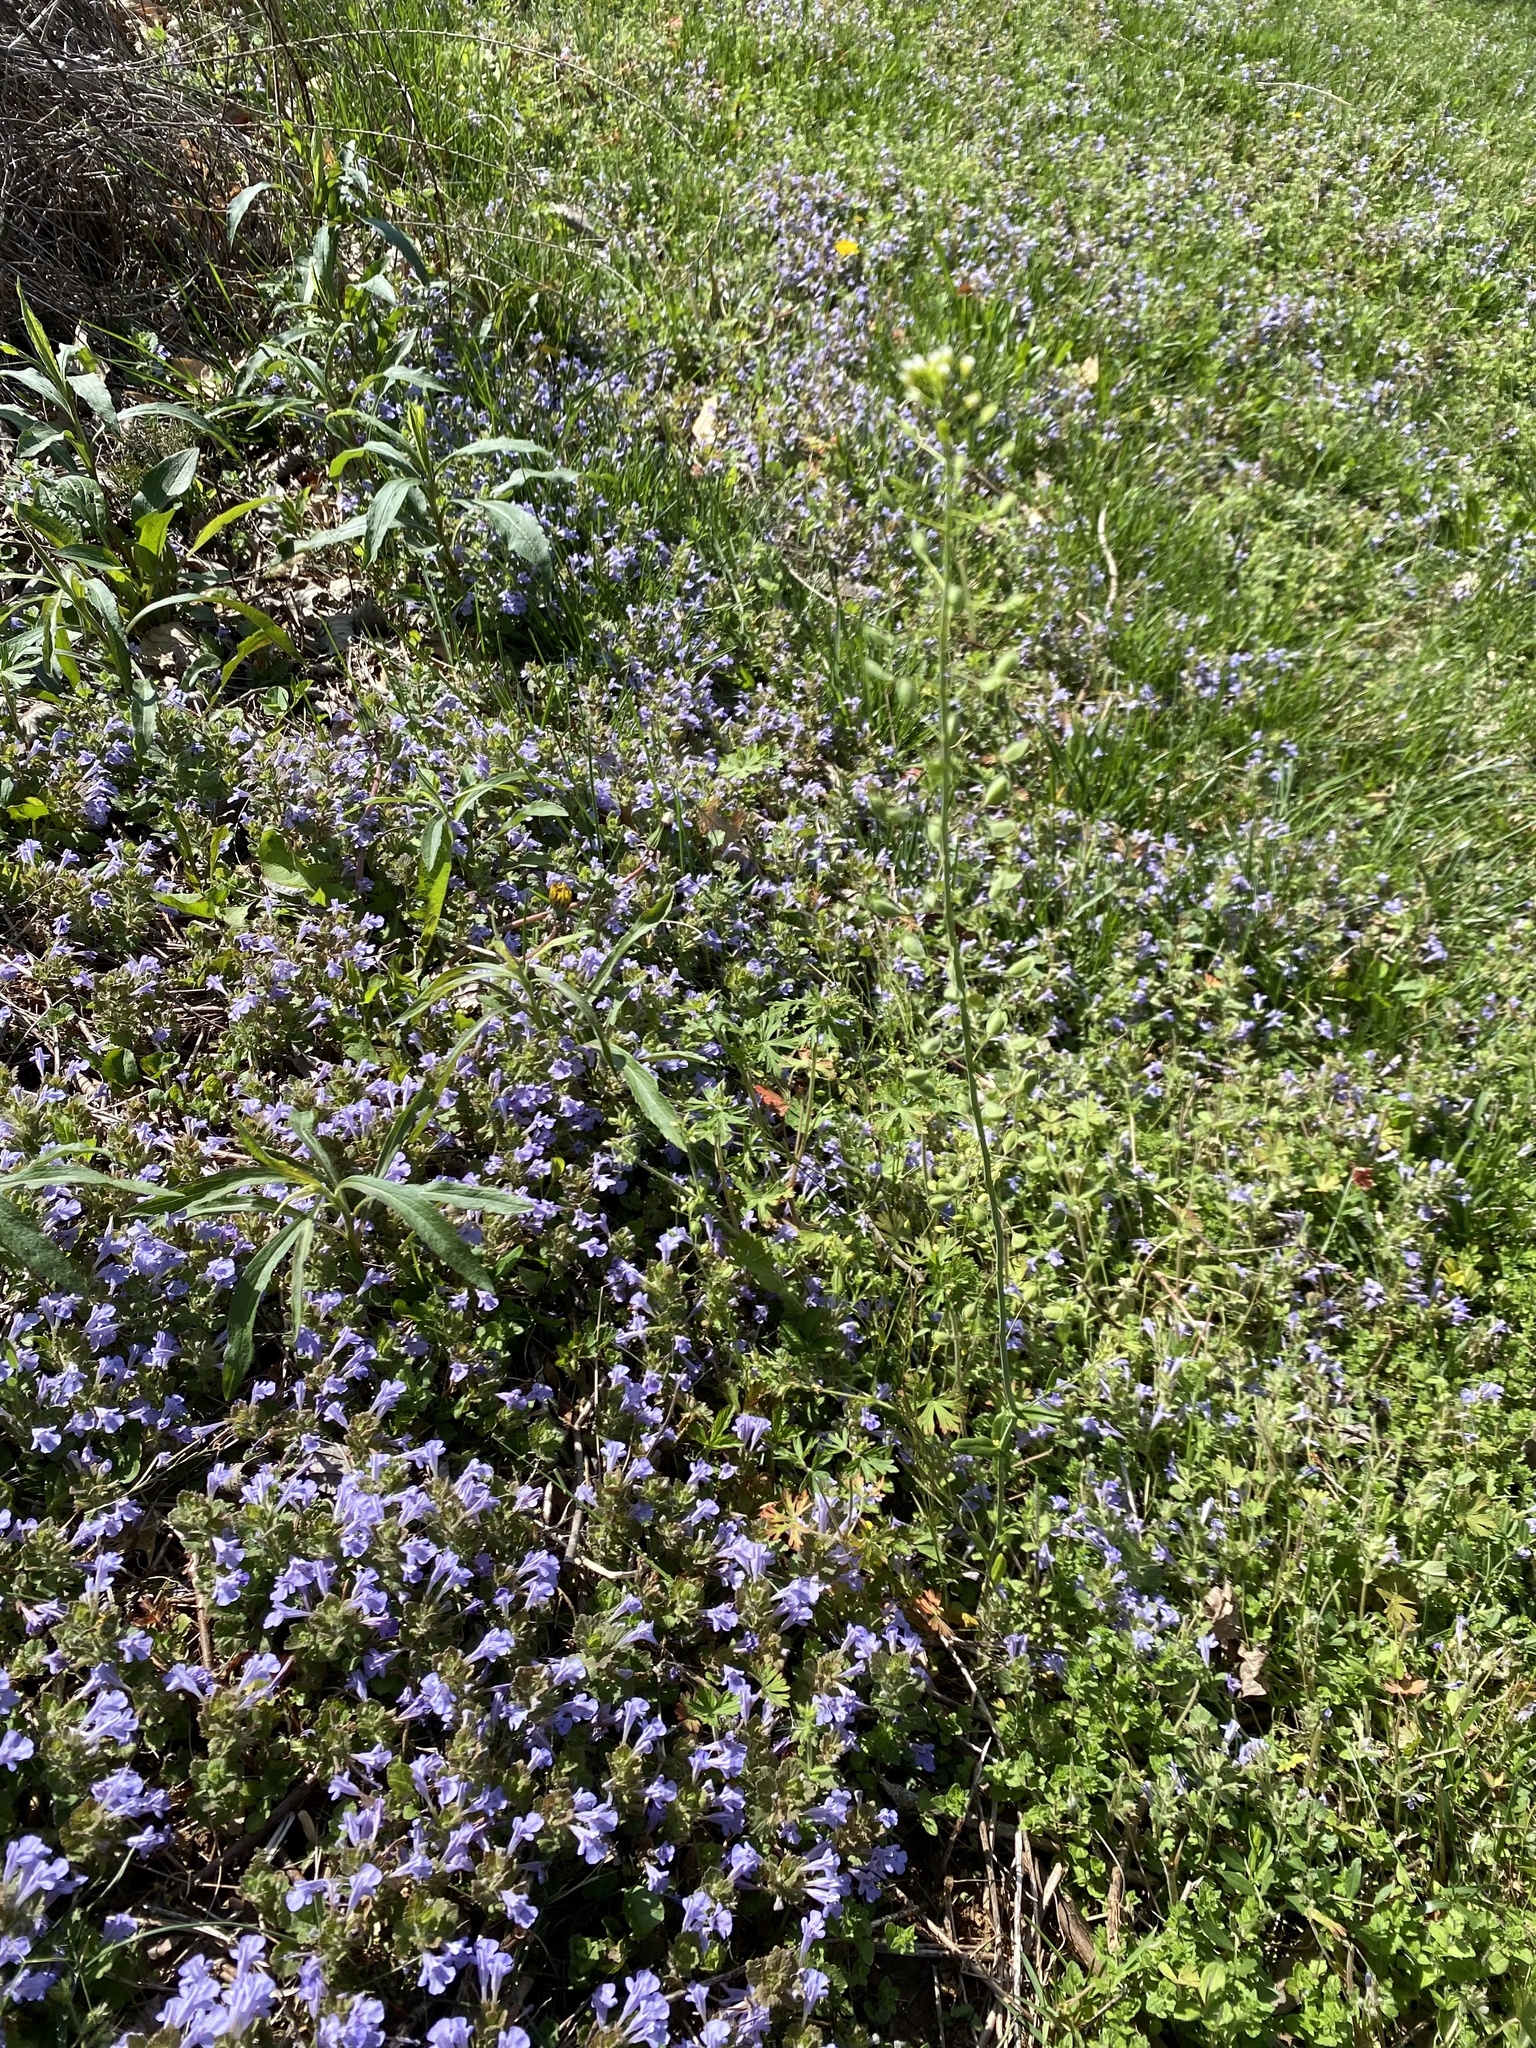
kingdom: Plantae
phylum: Tracheophyta
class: Magnoliopsida
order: Lamiales
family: Lamiaceae
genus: Glechoma
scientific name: Glechoma hederacea
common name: Ground ivy
